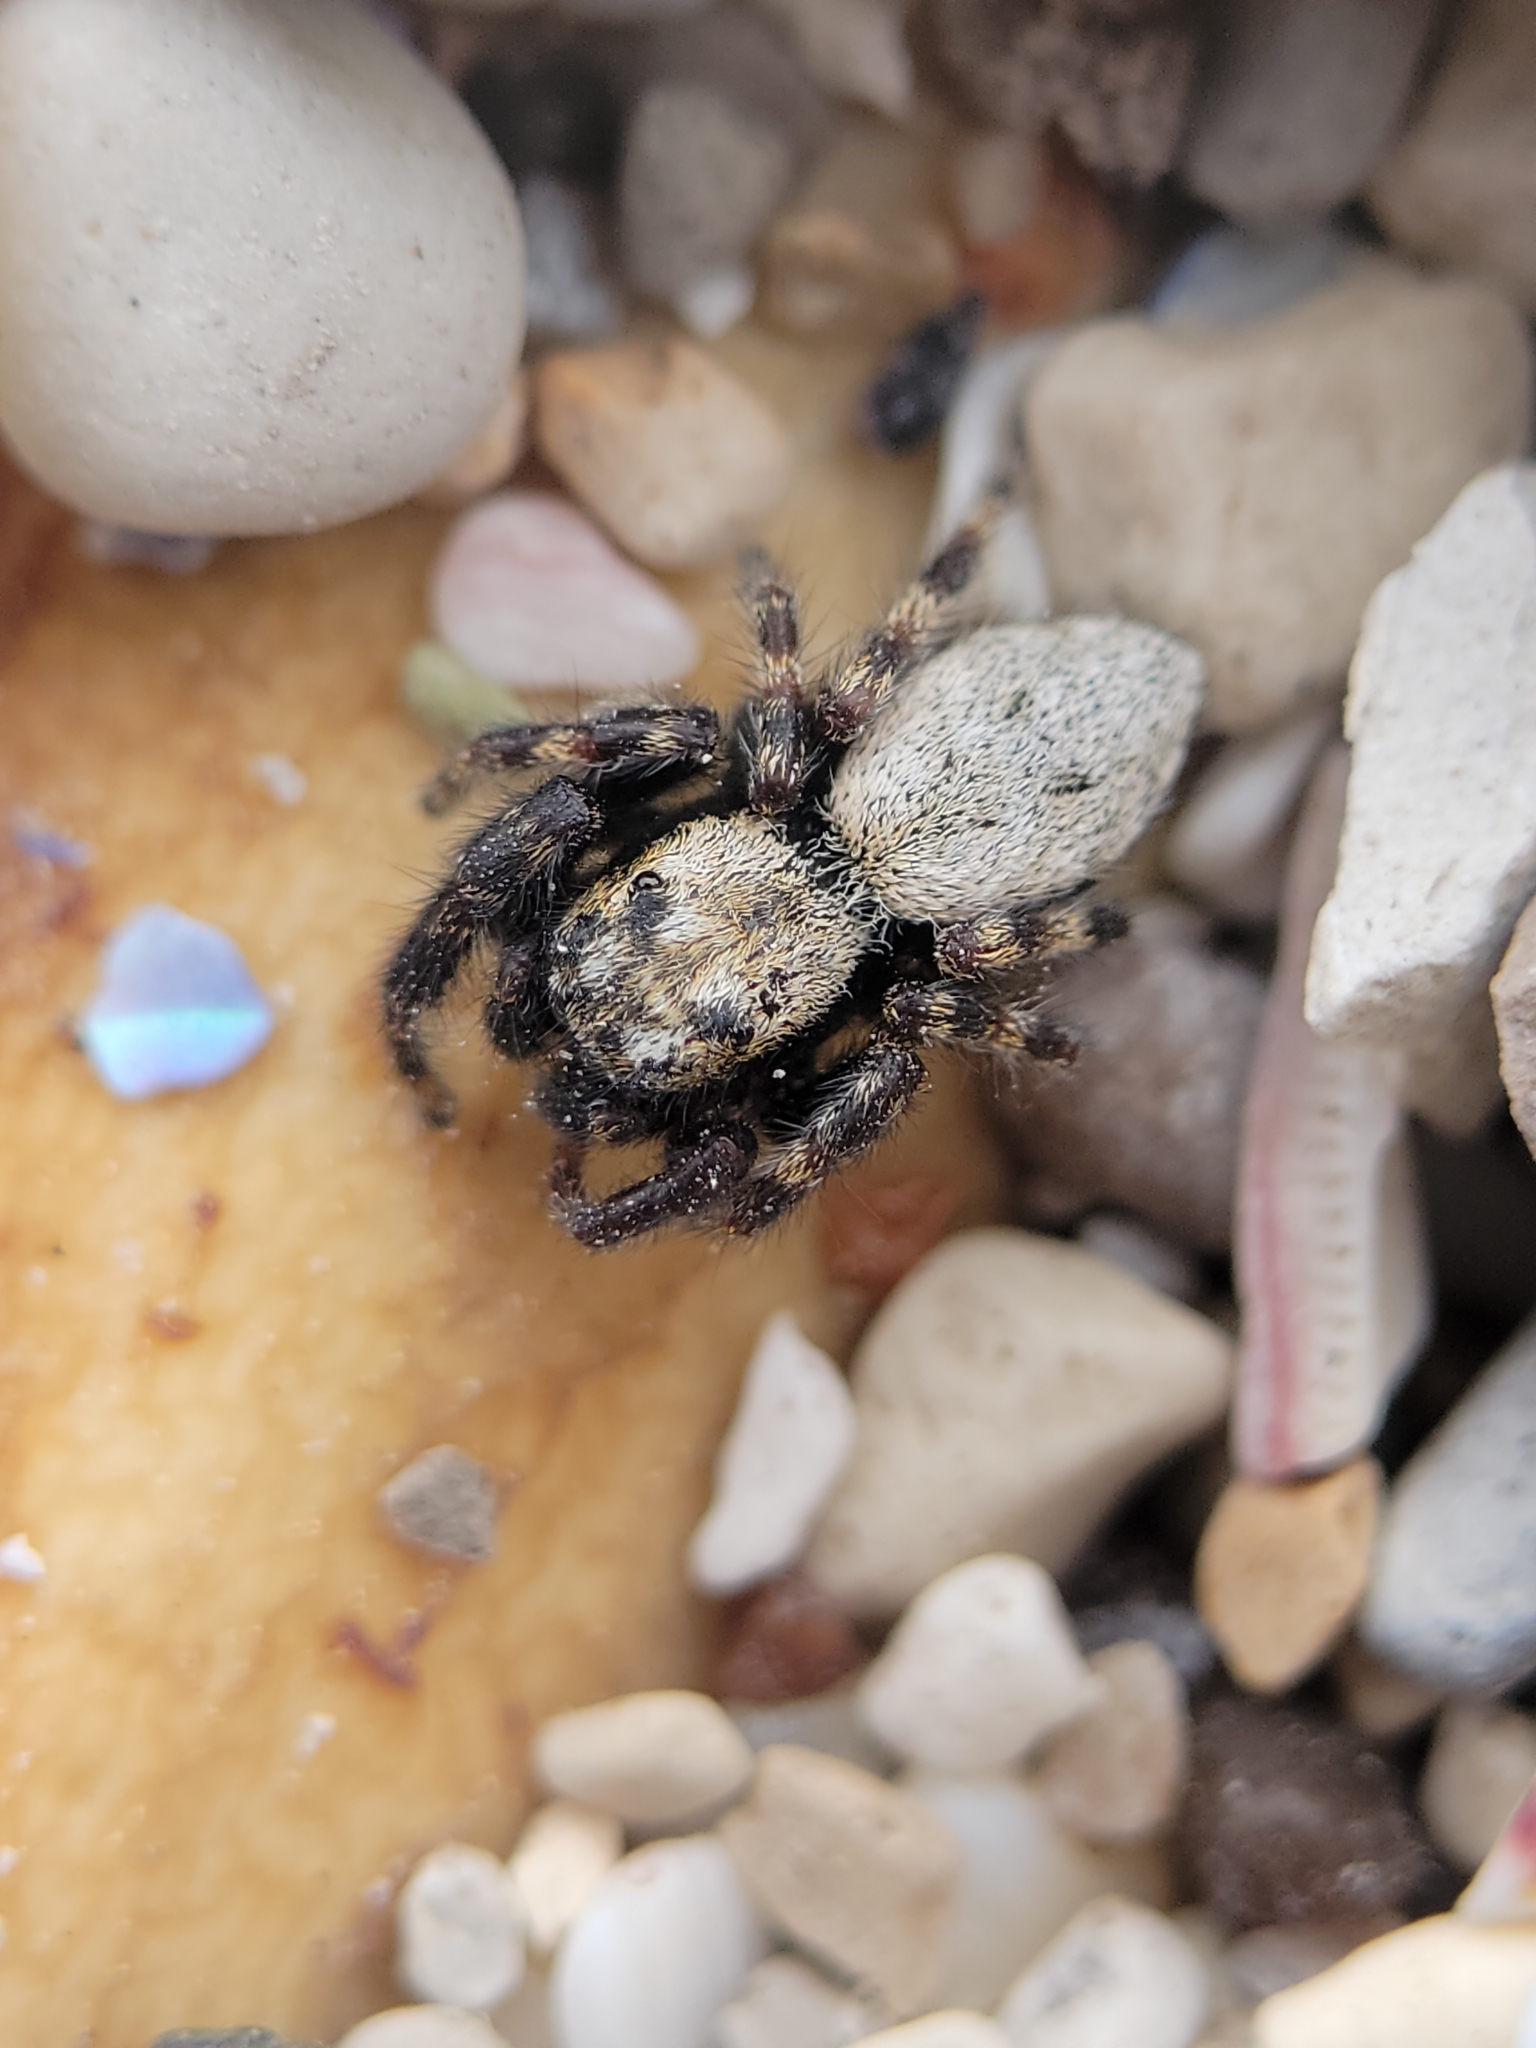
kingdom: Animalia
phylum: Arthropoda
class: Arachnida
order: Araneae
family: Salticidae
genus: Terralonus
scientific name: Terralonus californicus
